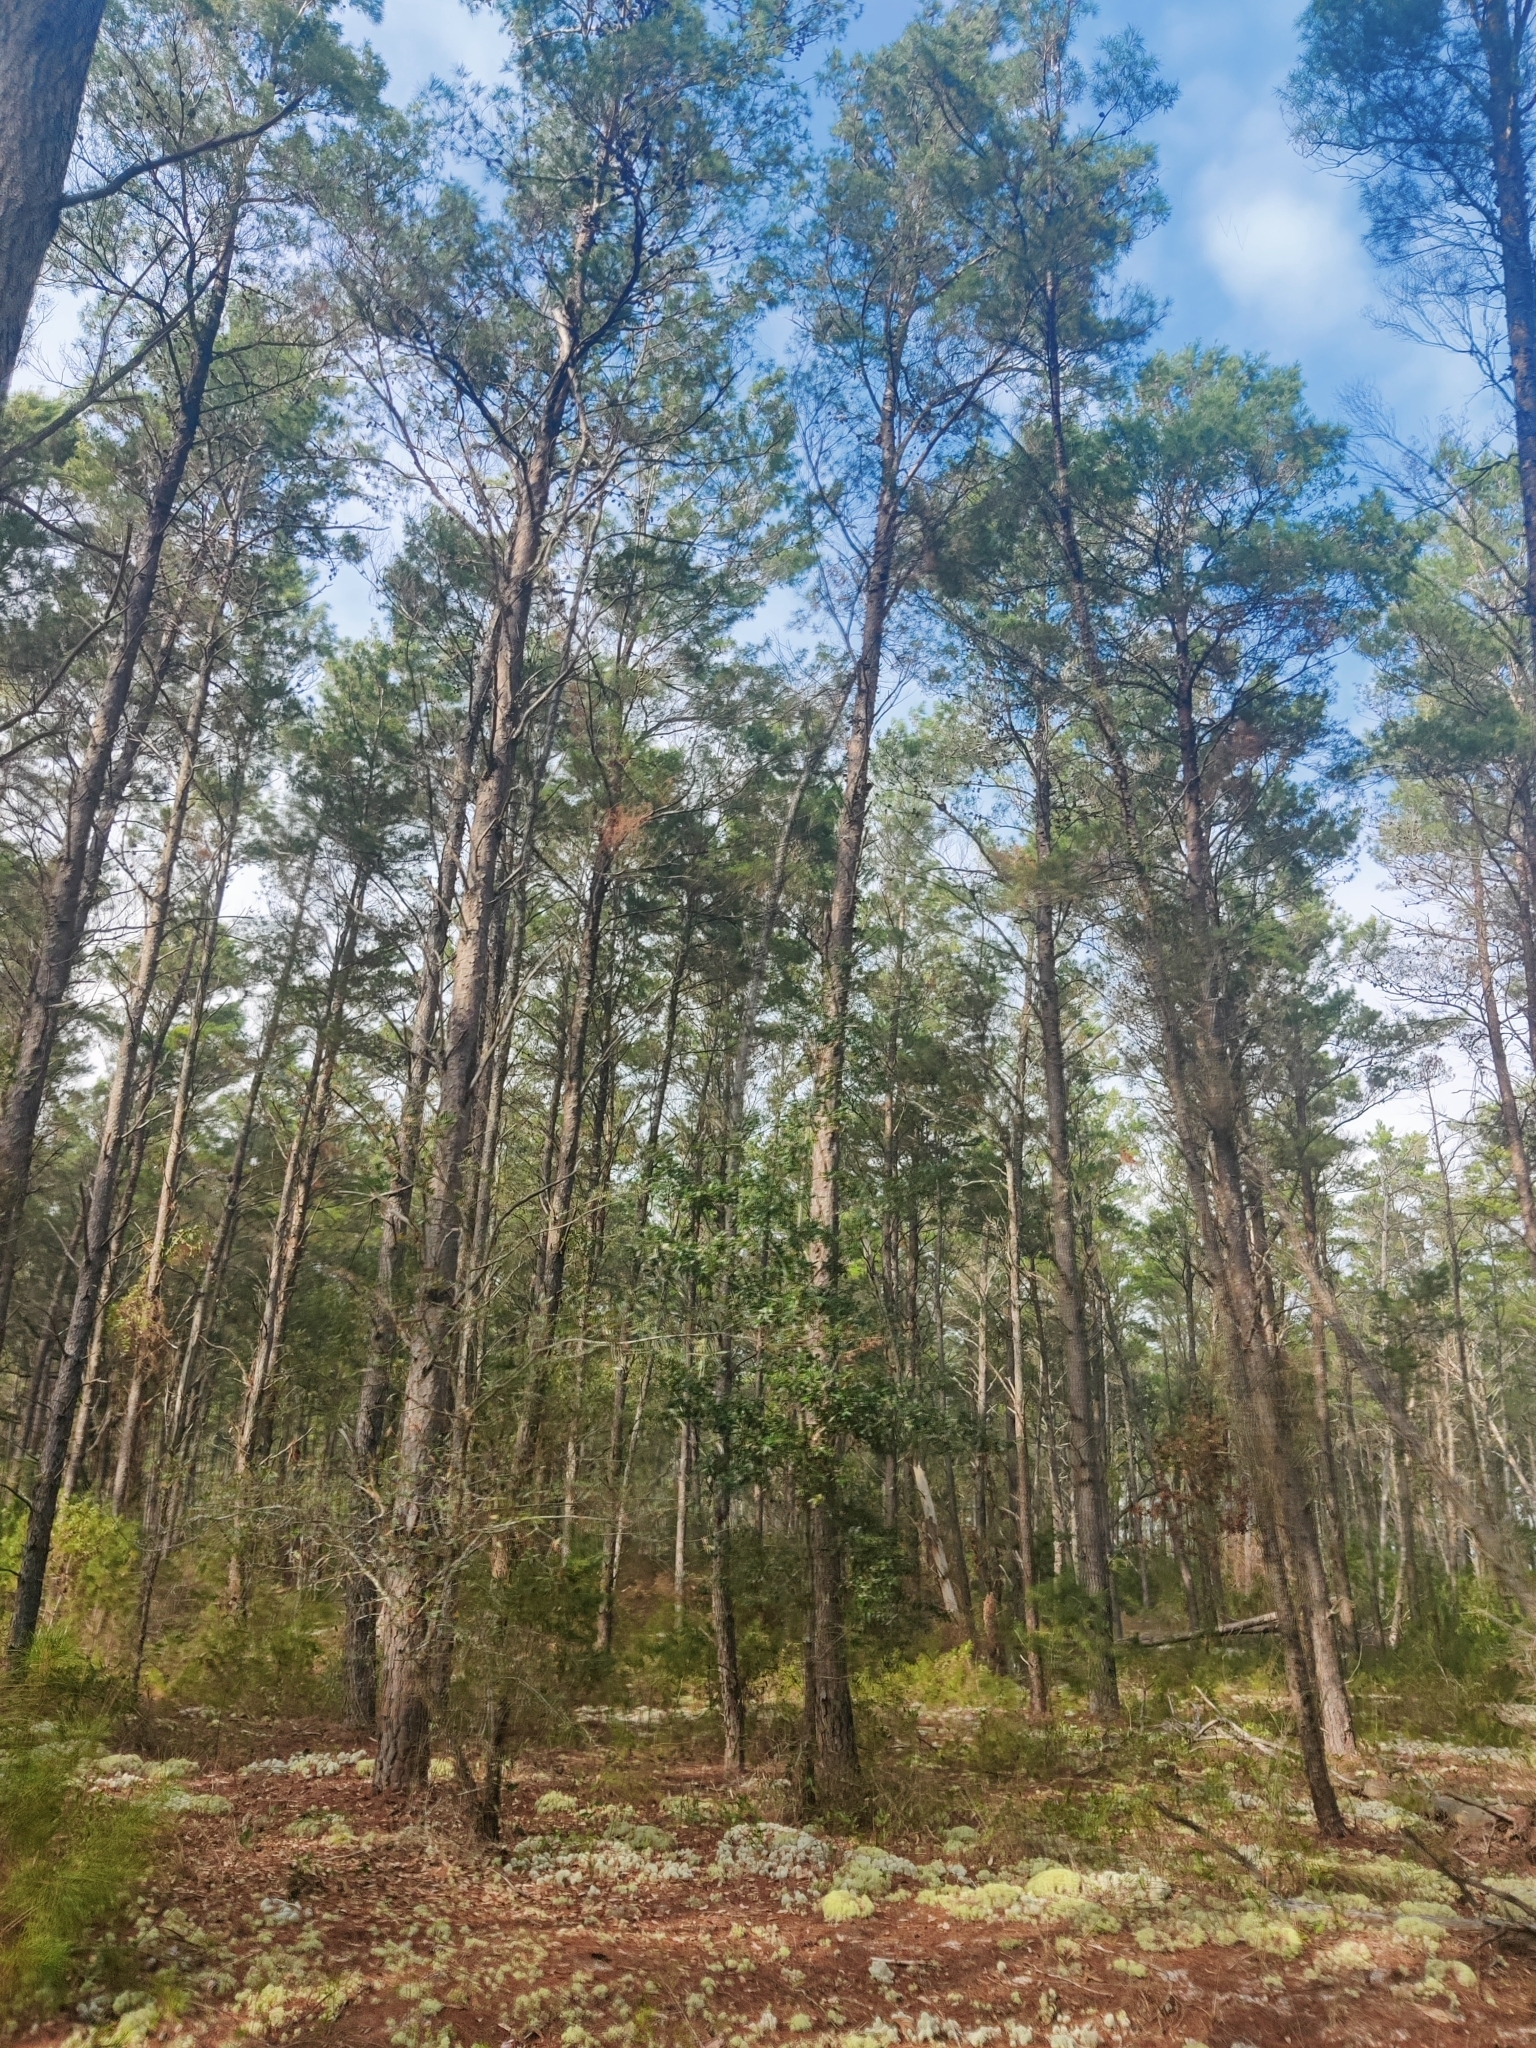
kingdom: Plantae
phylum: Tracheophyta
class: Pinopsida
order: Pinales
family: Pinaceae
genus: Pinus
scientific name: Pinus clausa
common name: Sand pine
